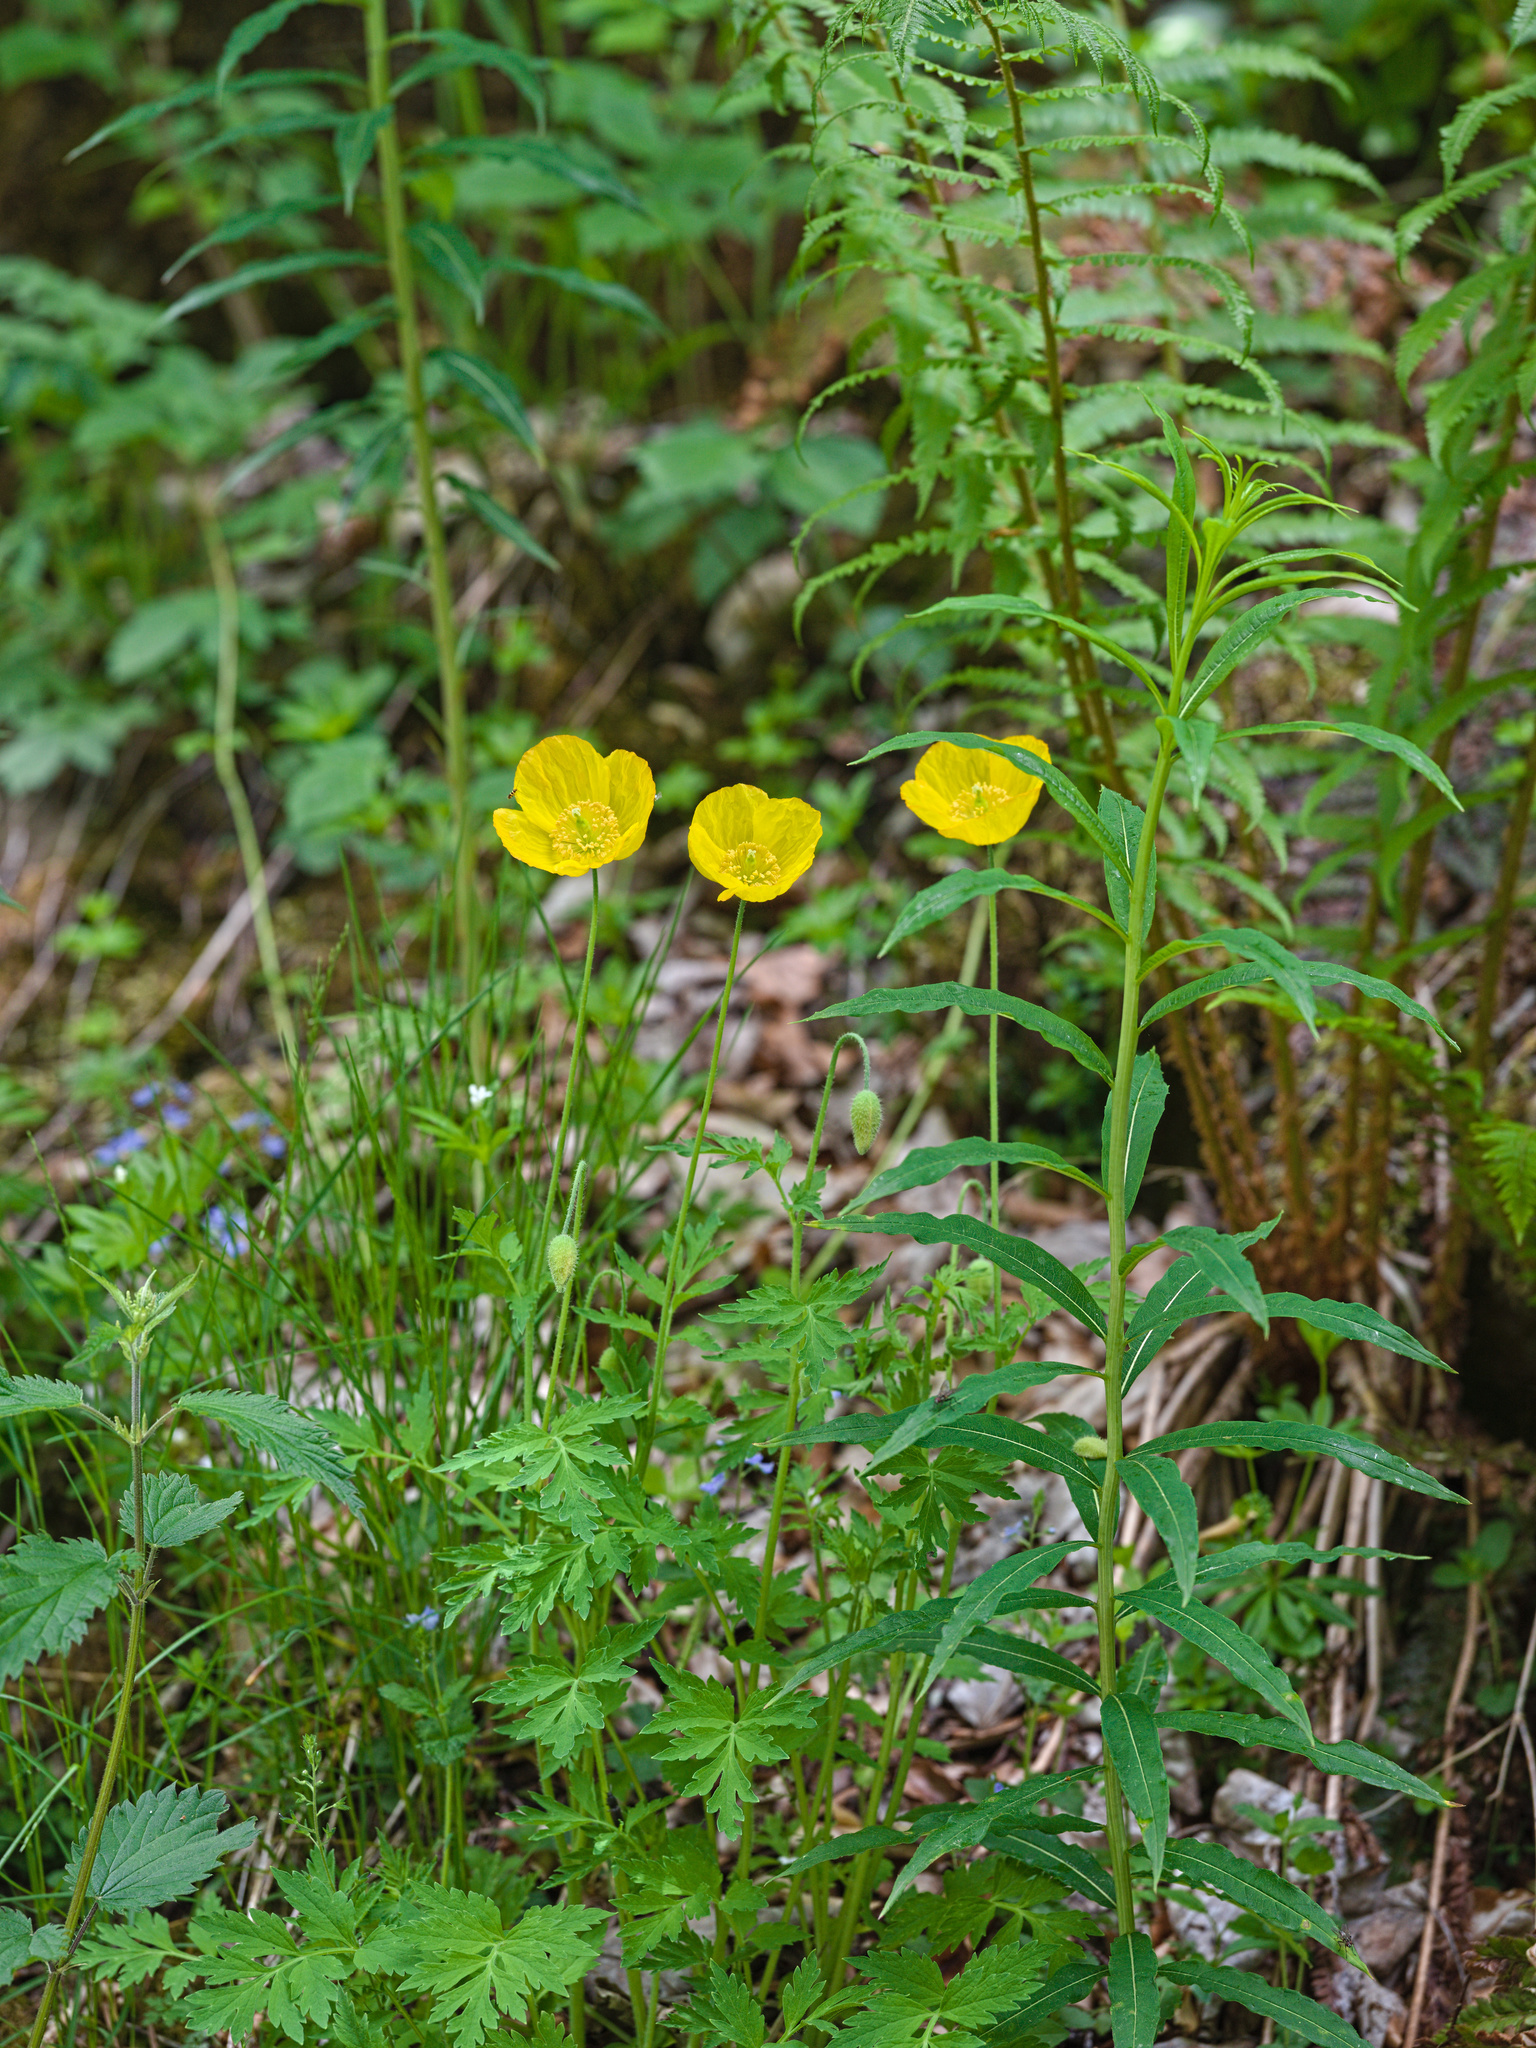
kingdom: Plantae
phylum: Tracheophyta
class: Magnoliopsida
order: Ranunculales
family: Papaveraceae
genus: Papaver
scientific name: Papaver cambricum
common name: Poppy
